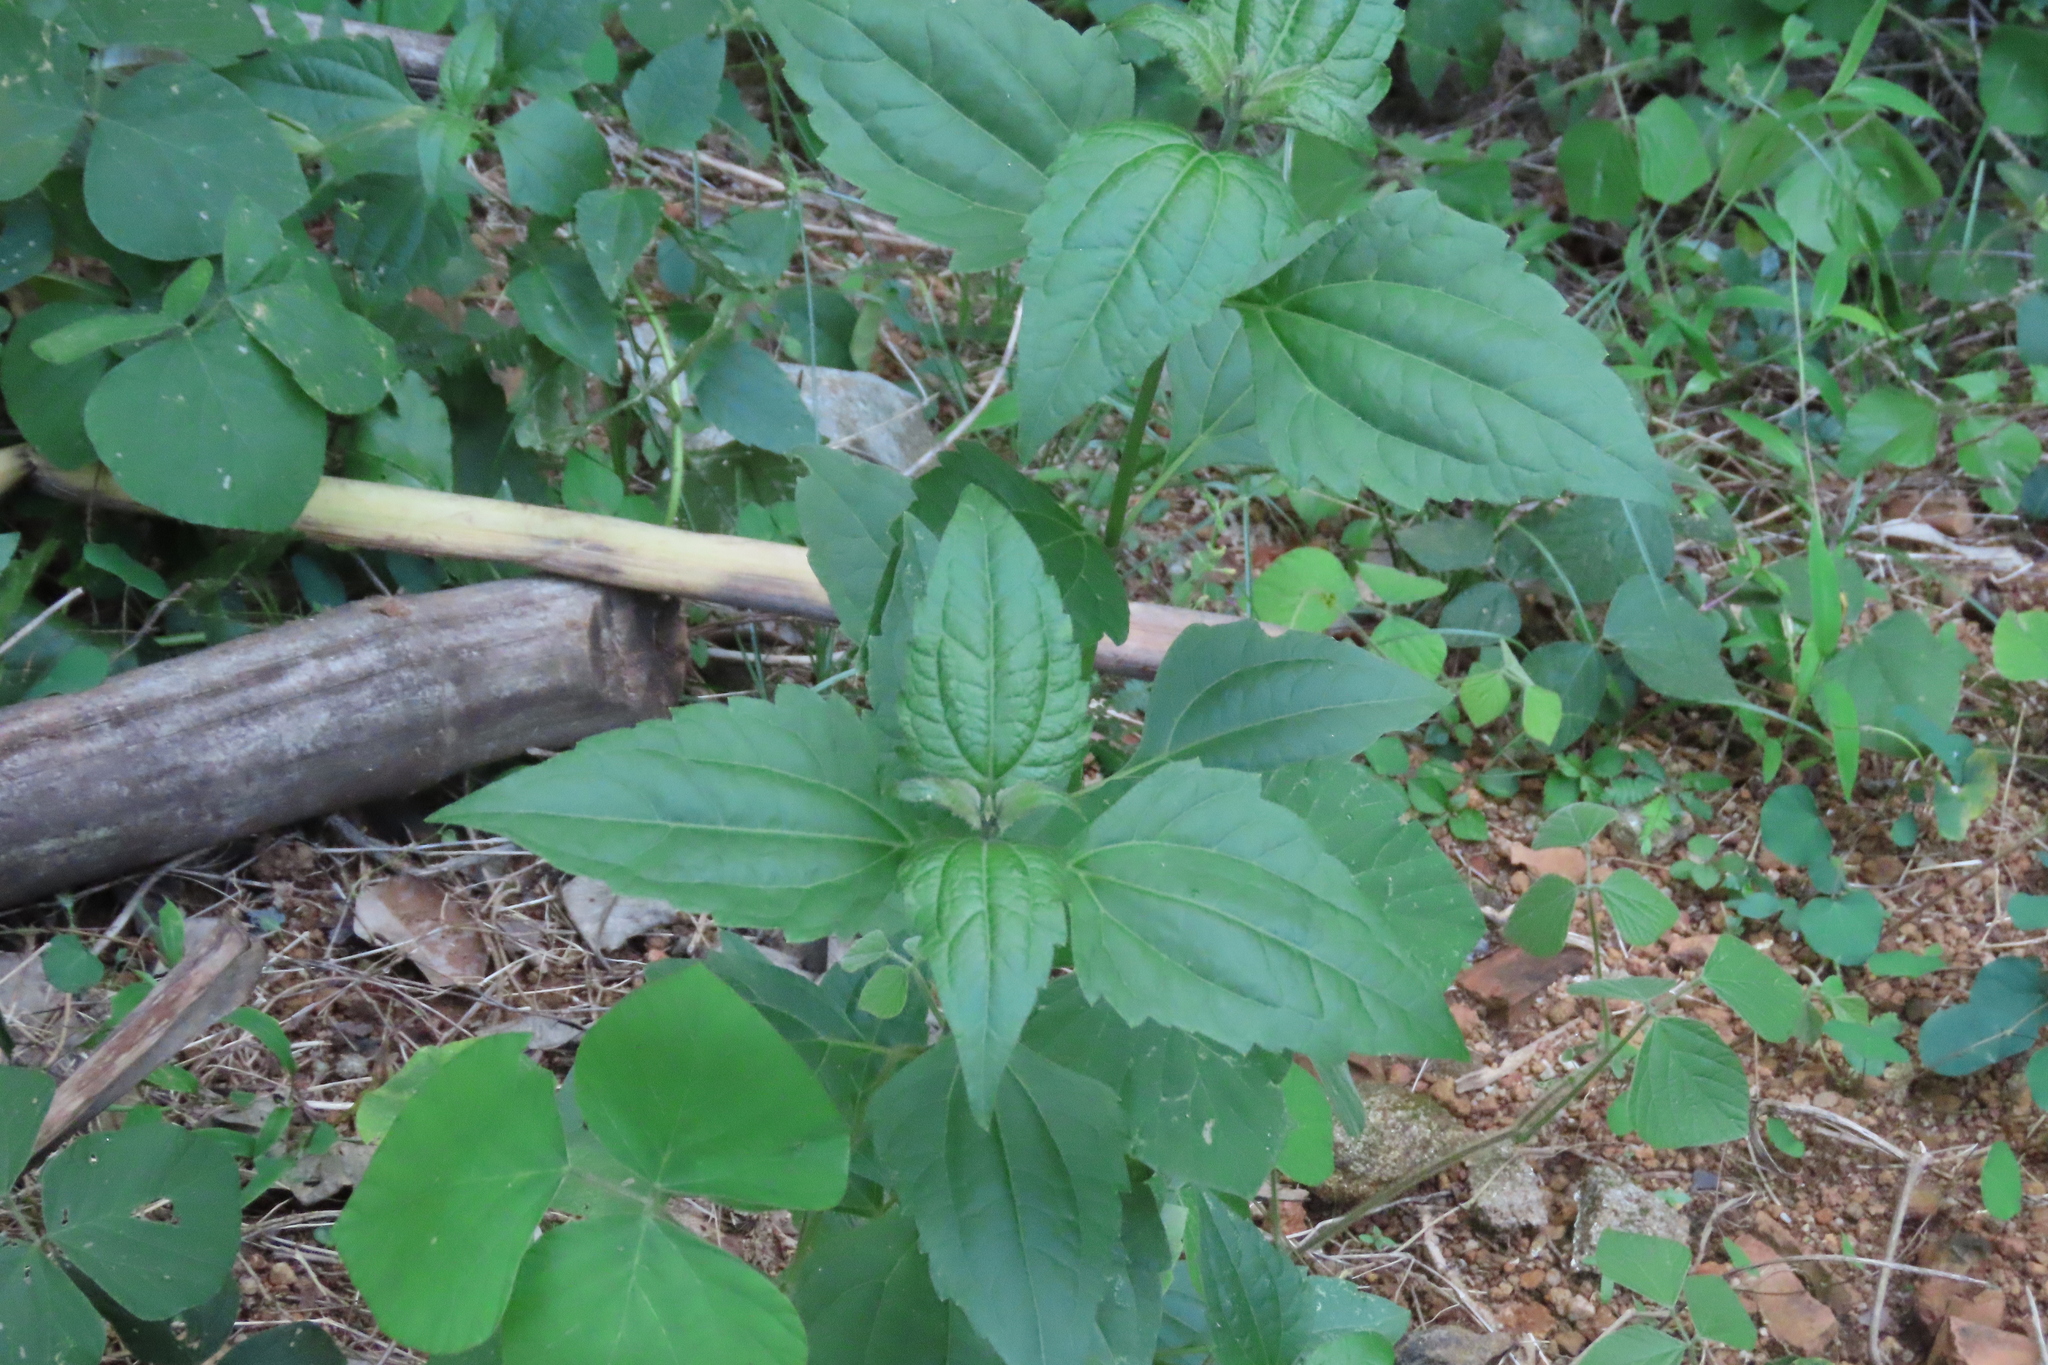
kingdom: Plantae
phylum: Tracheophyta
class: Magnoliopsida
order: Asterales
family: Asteraceae
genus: Chromolaena
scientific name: Chromolaena odorata
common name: Siamweed
